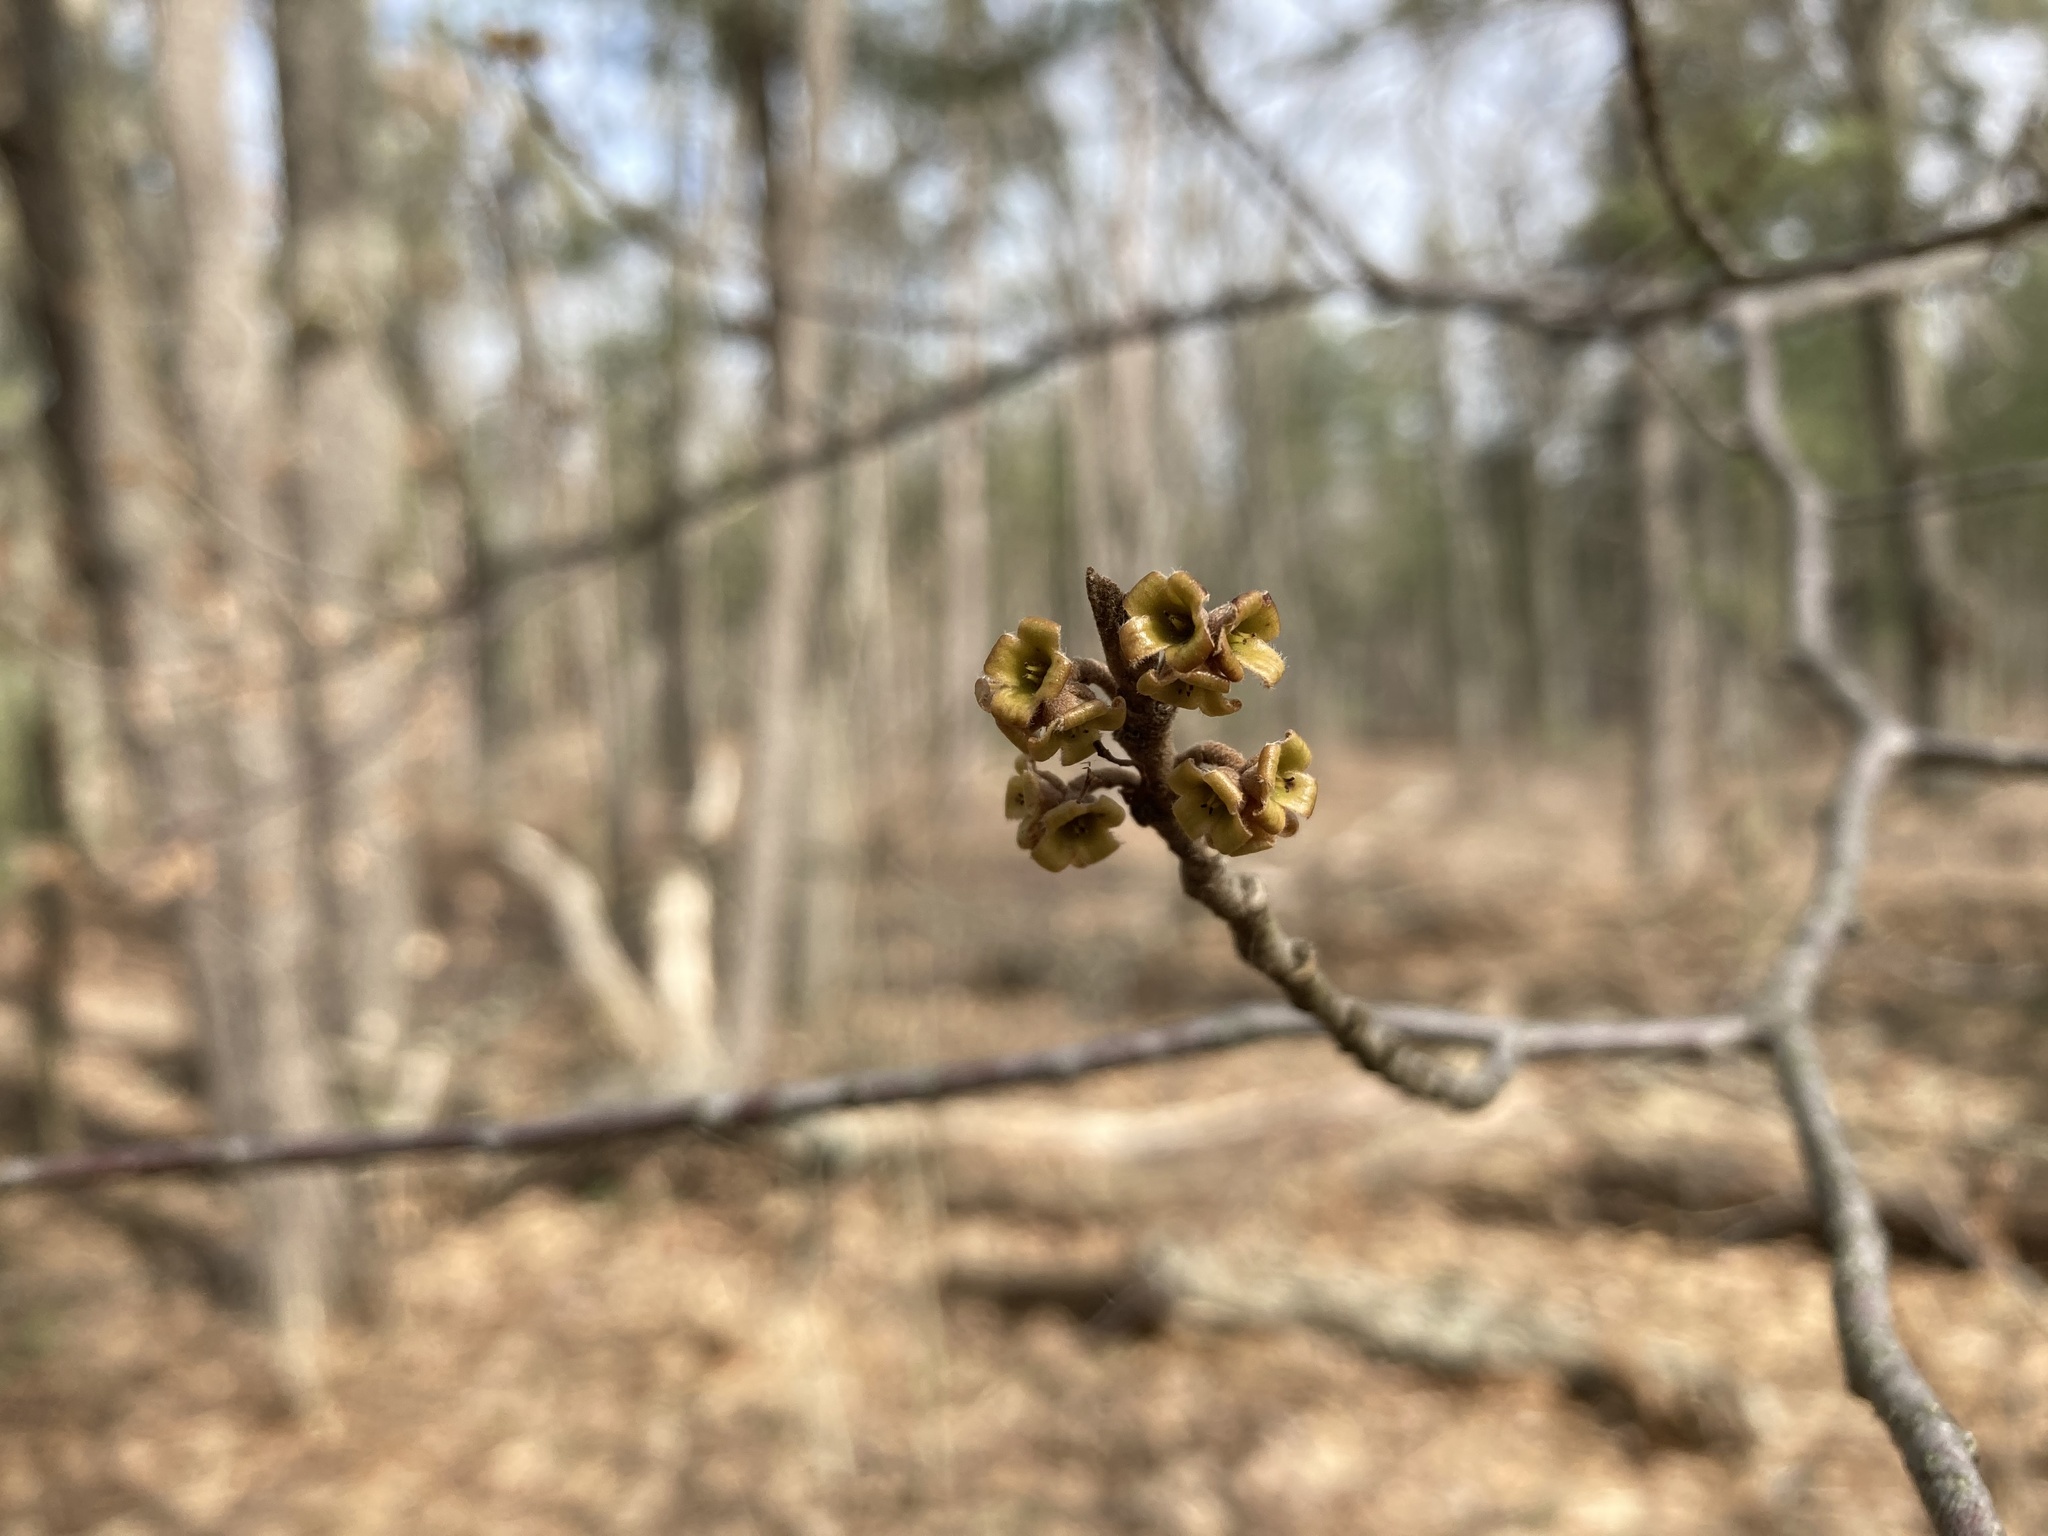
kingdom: Plantae
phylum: Tracheophyta
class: Magnoliopsida
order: Saxifragales
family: Hamamelidaceae
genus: Hamamelis
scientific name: Hamamelis virginiana
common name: Witch-hazel
